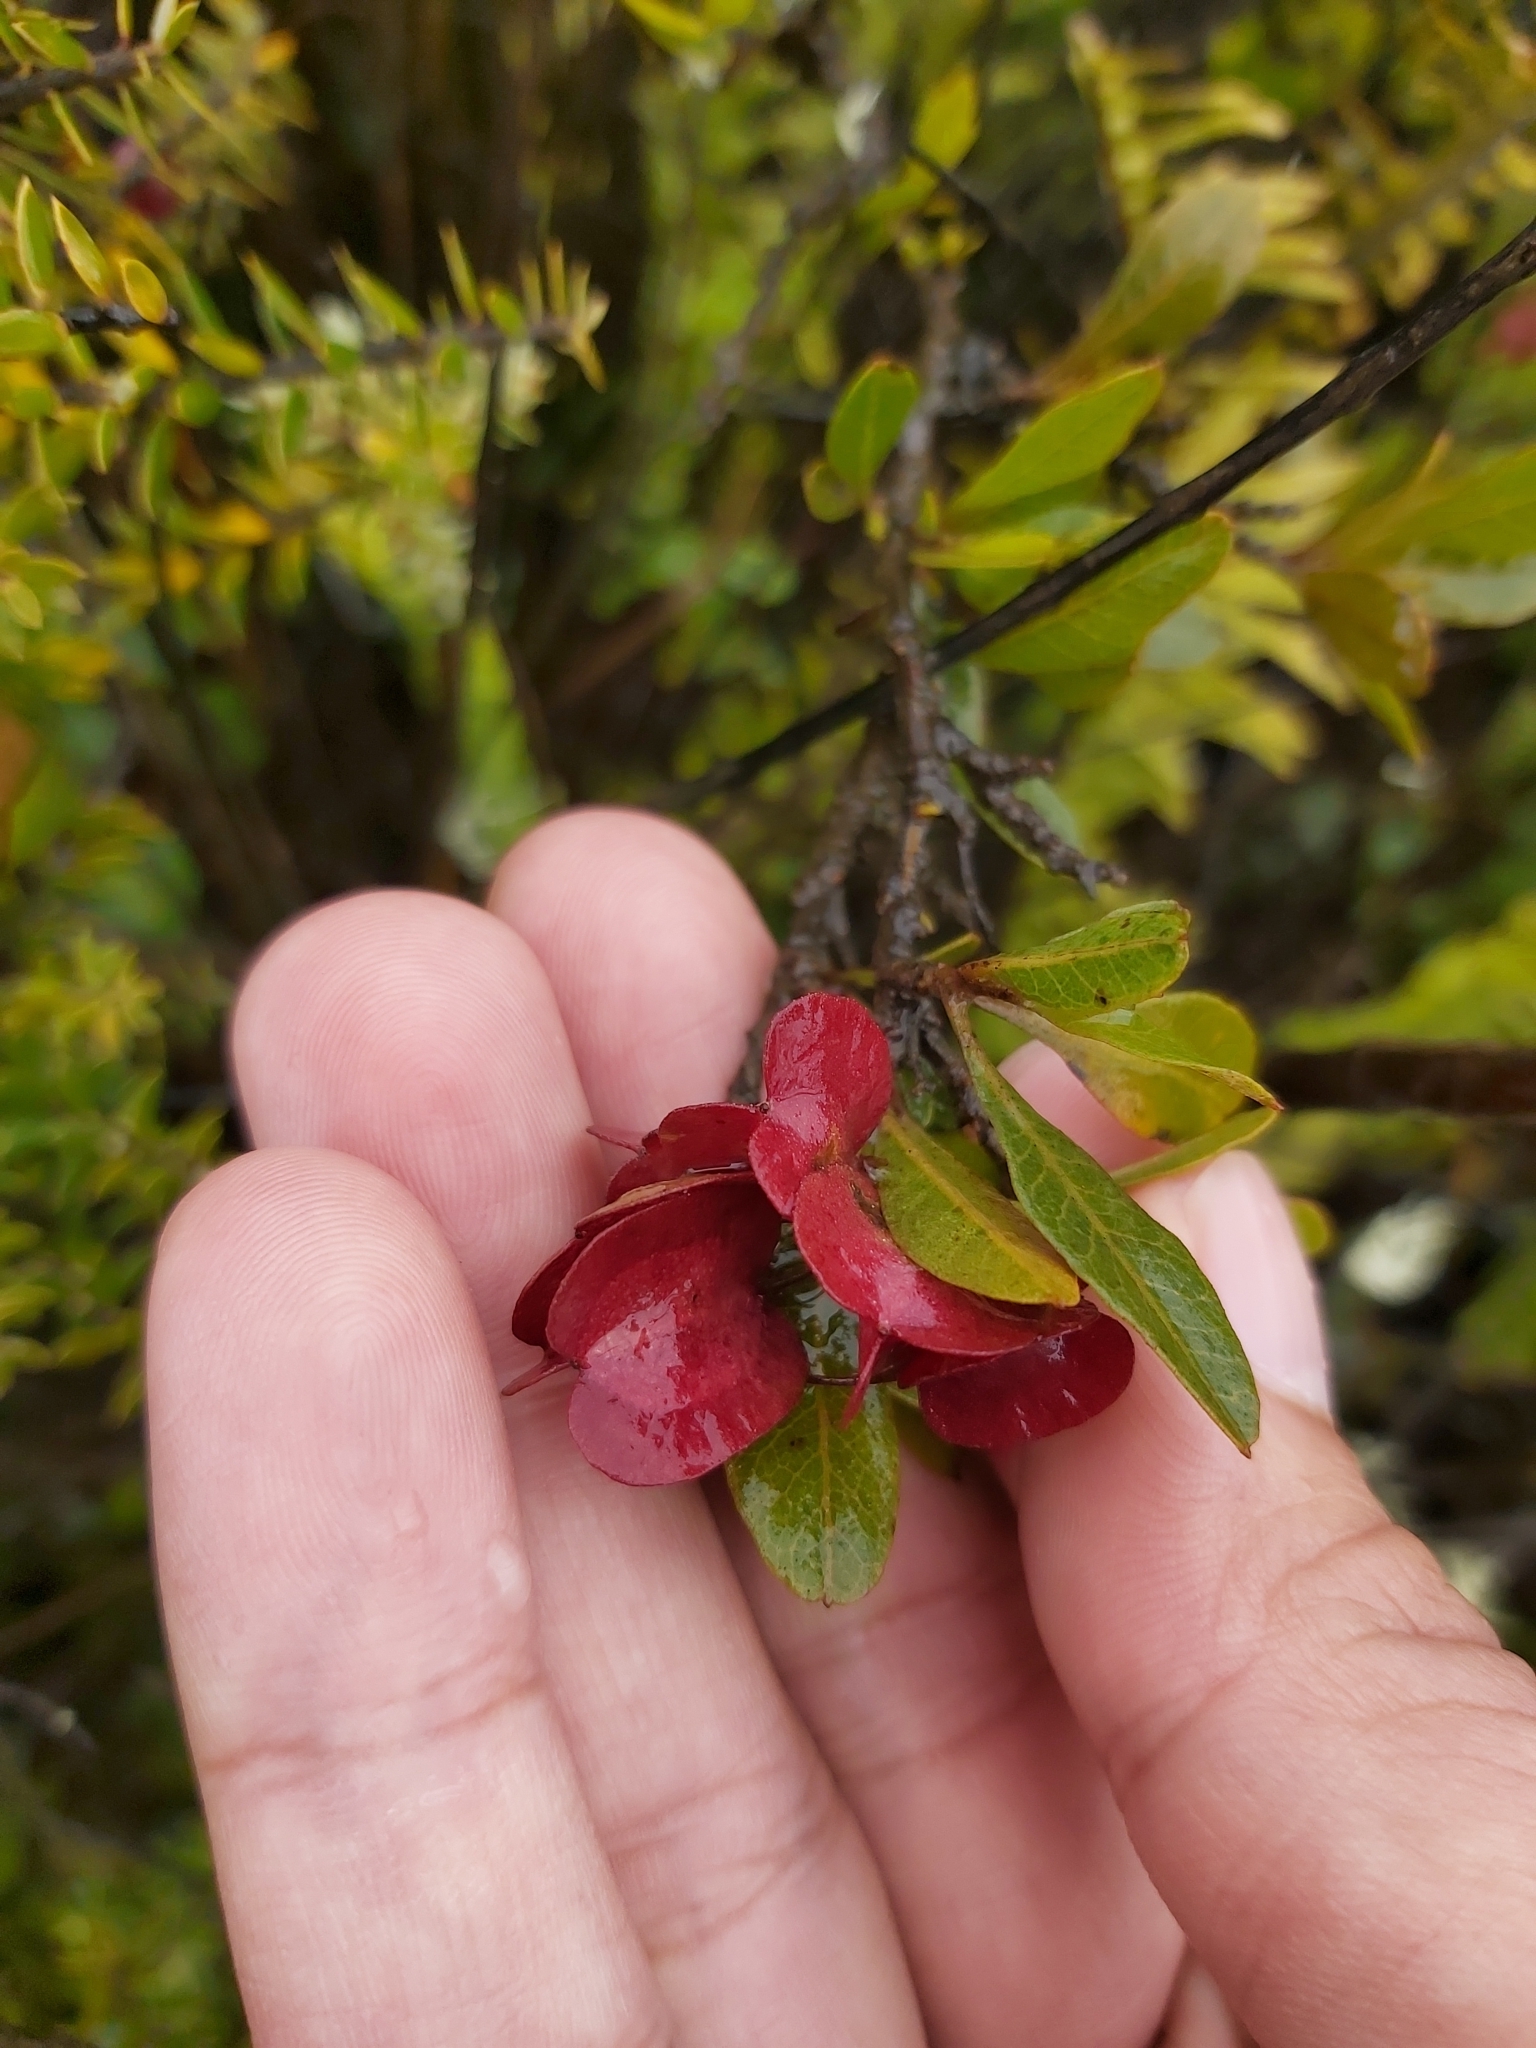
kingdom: Plantae
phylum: Tracheophyta
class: Magnoliopsida
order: Sapindales
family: Sapindaceae
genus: Dodonaea
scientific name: Dodonaea viscosa
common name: Hopbush
